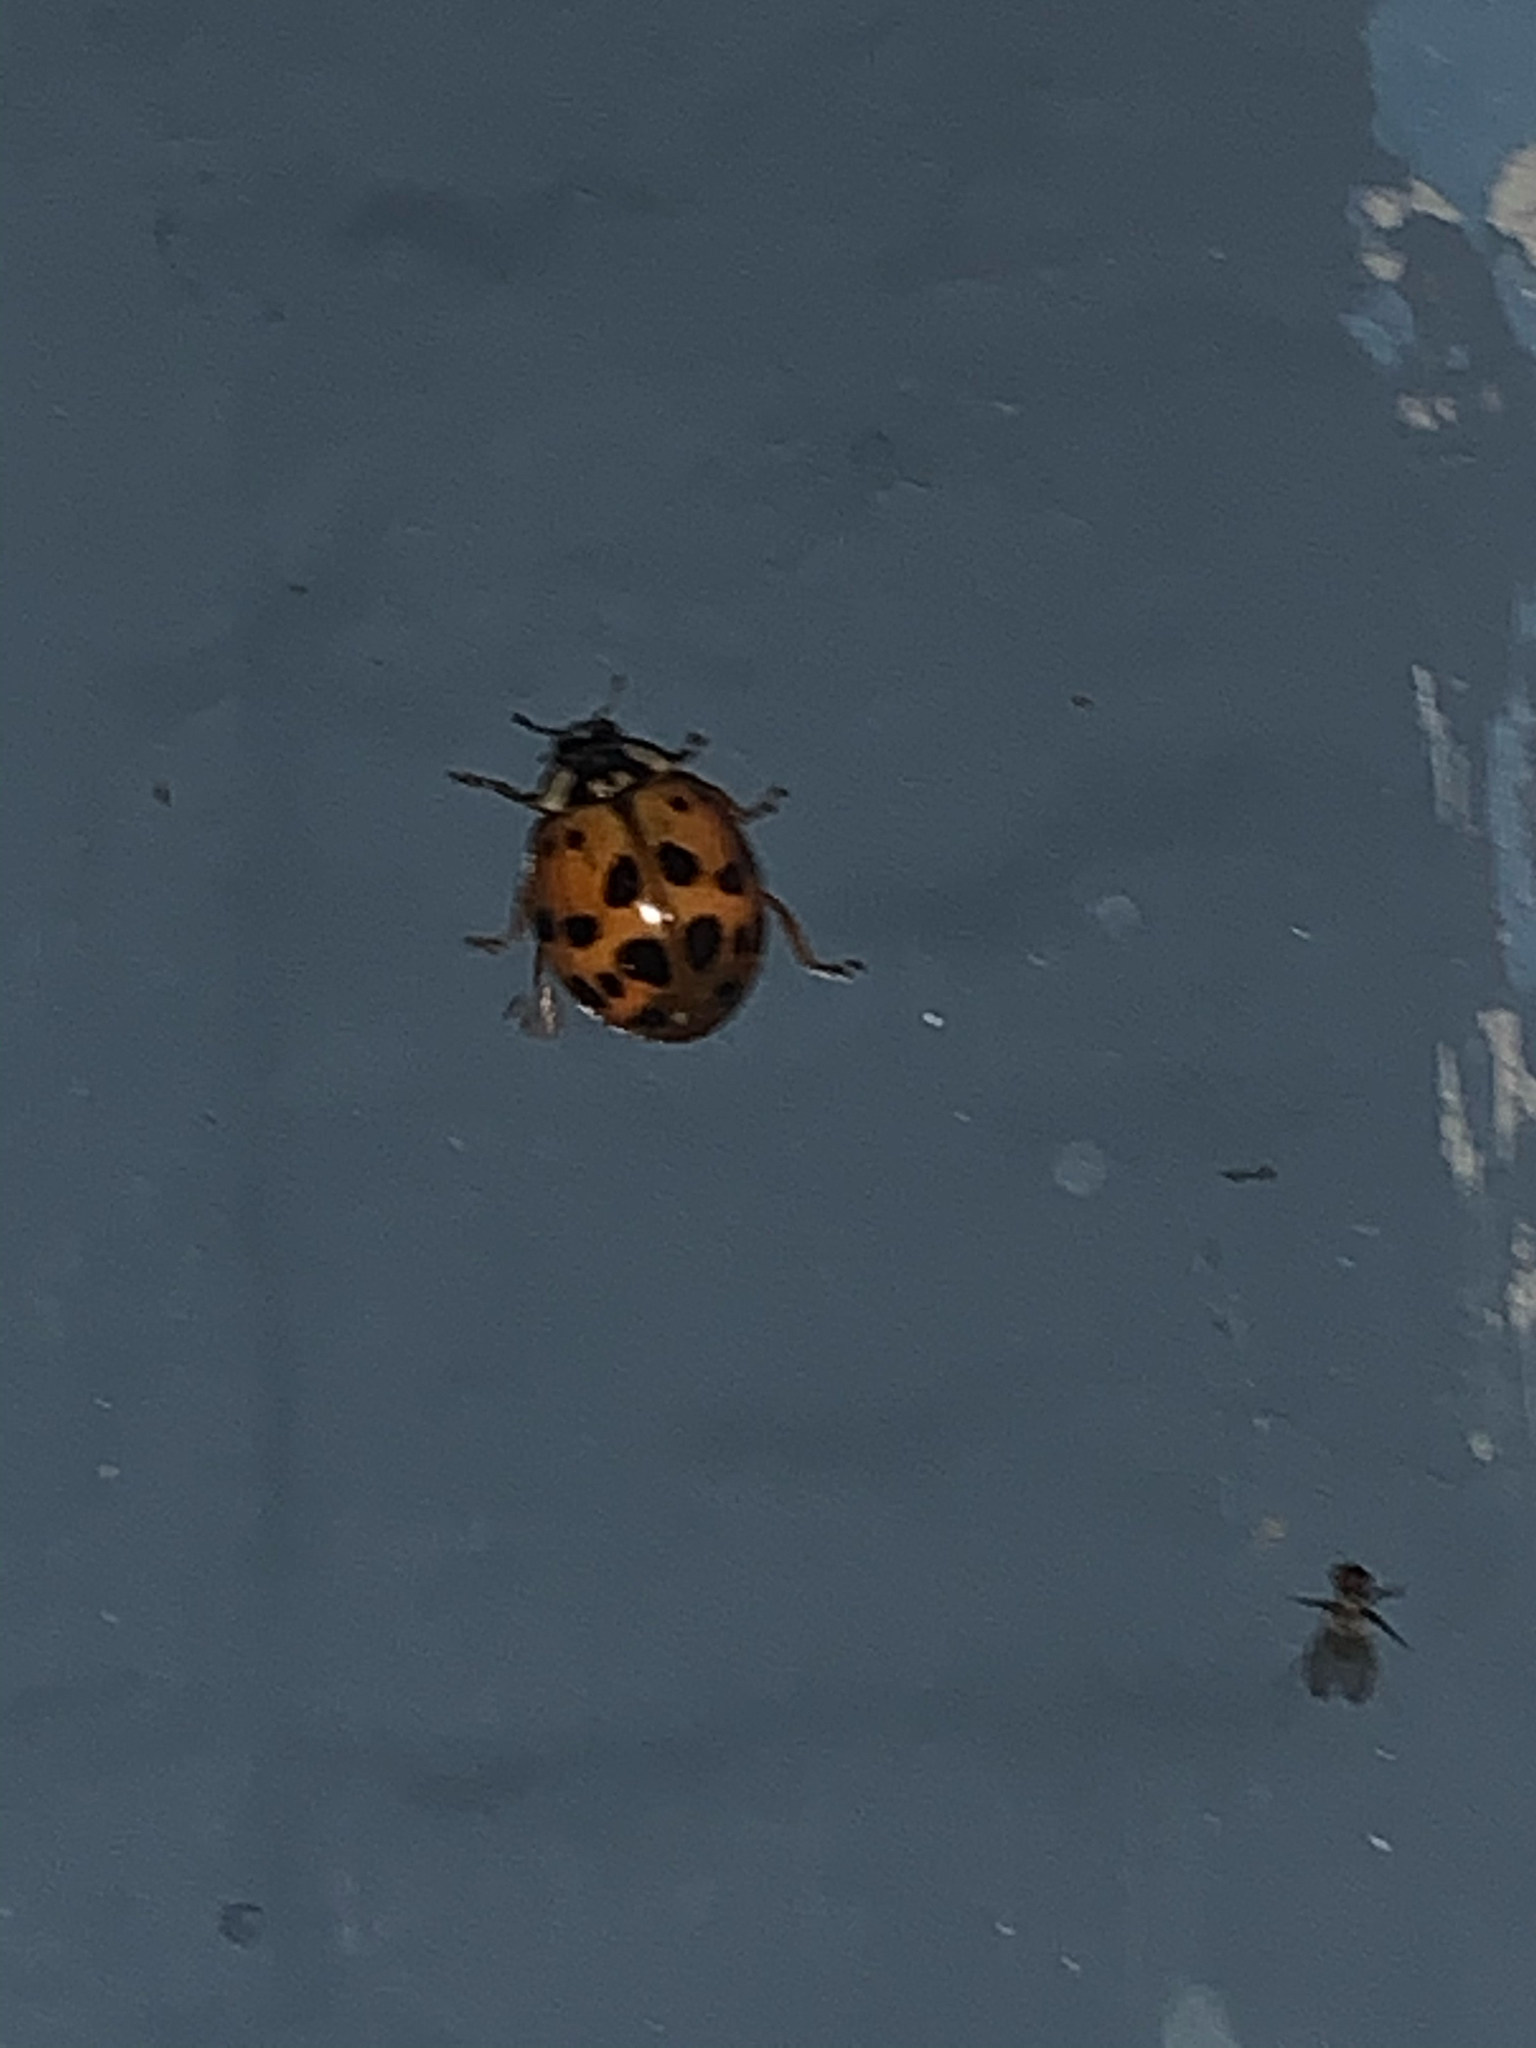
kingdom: Animalia
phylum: Arthropoda
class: Insecta
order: Coleoptera
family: Coccinellidae
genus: Harmonia
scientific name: Harmonia axyridis
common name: Harlequin ladybird
